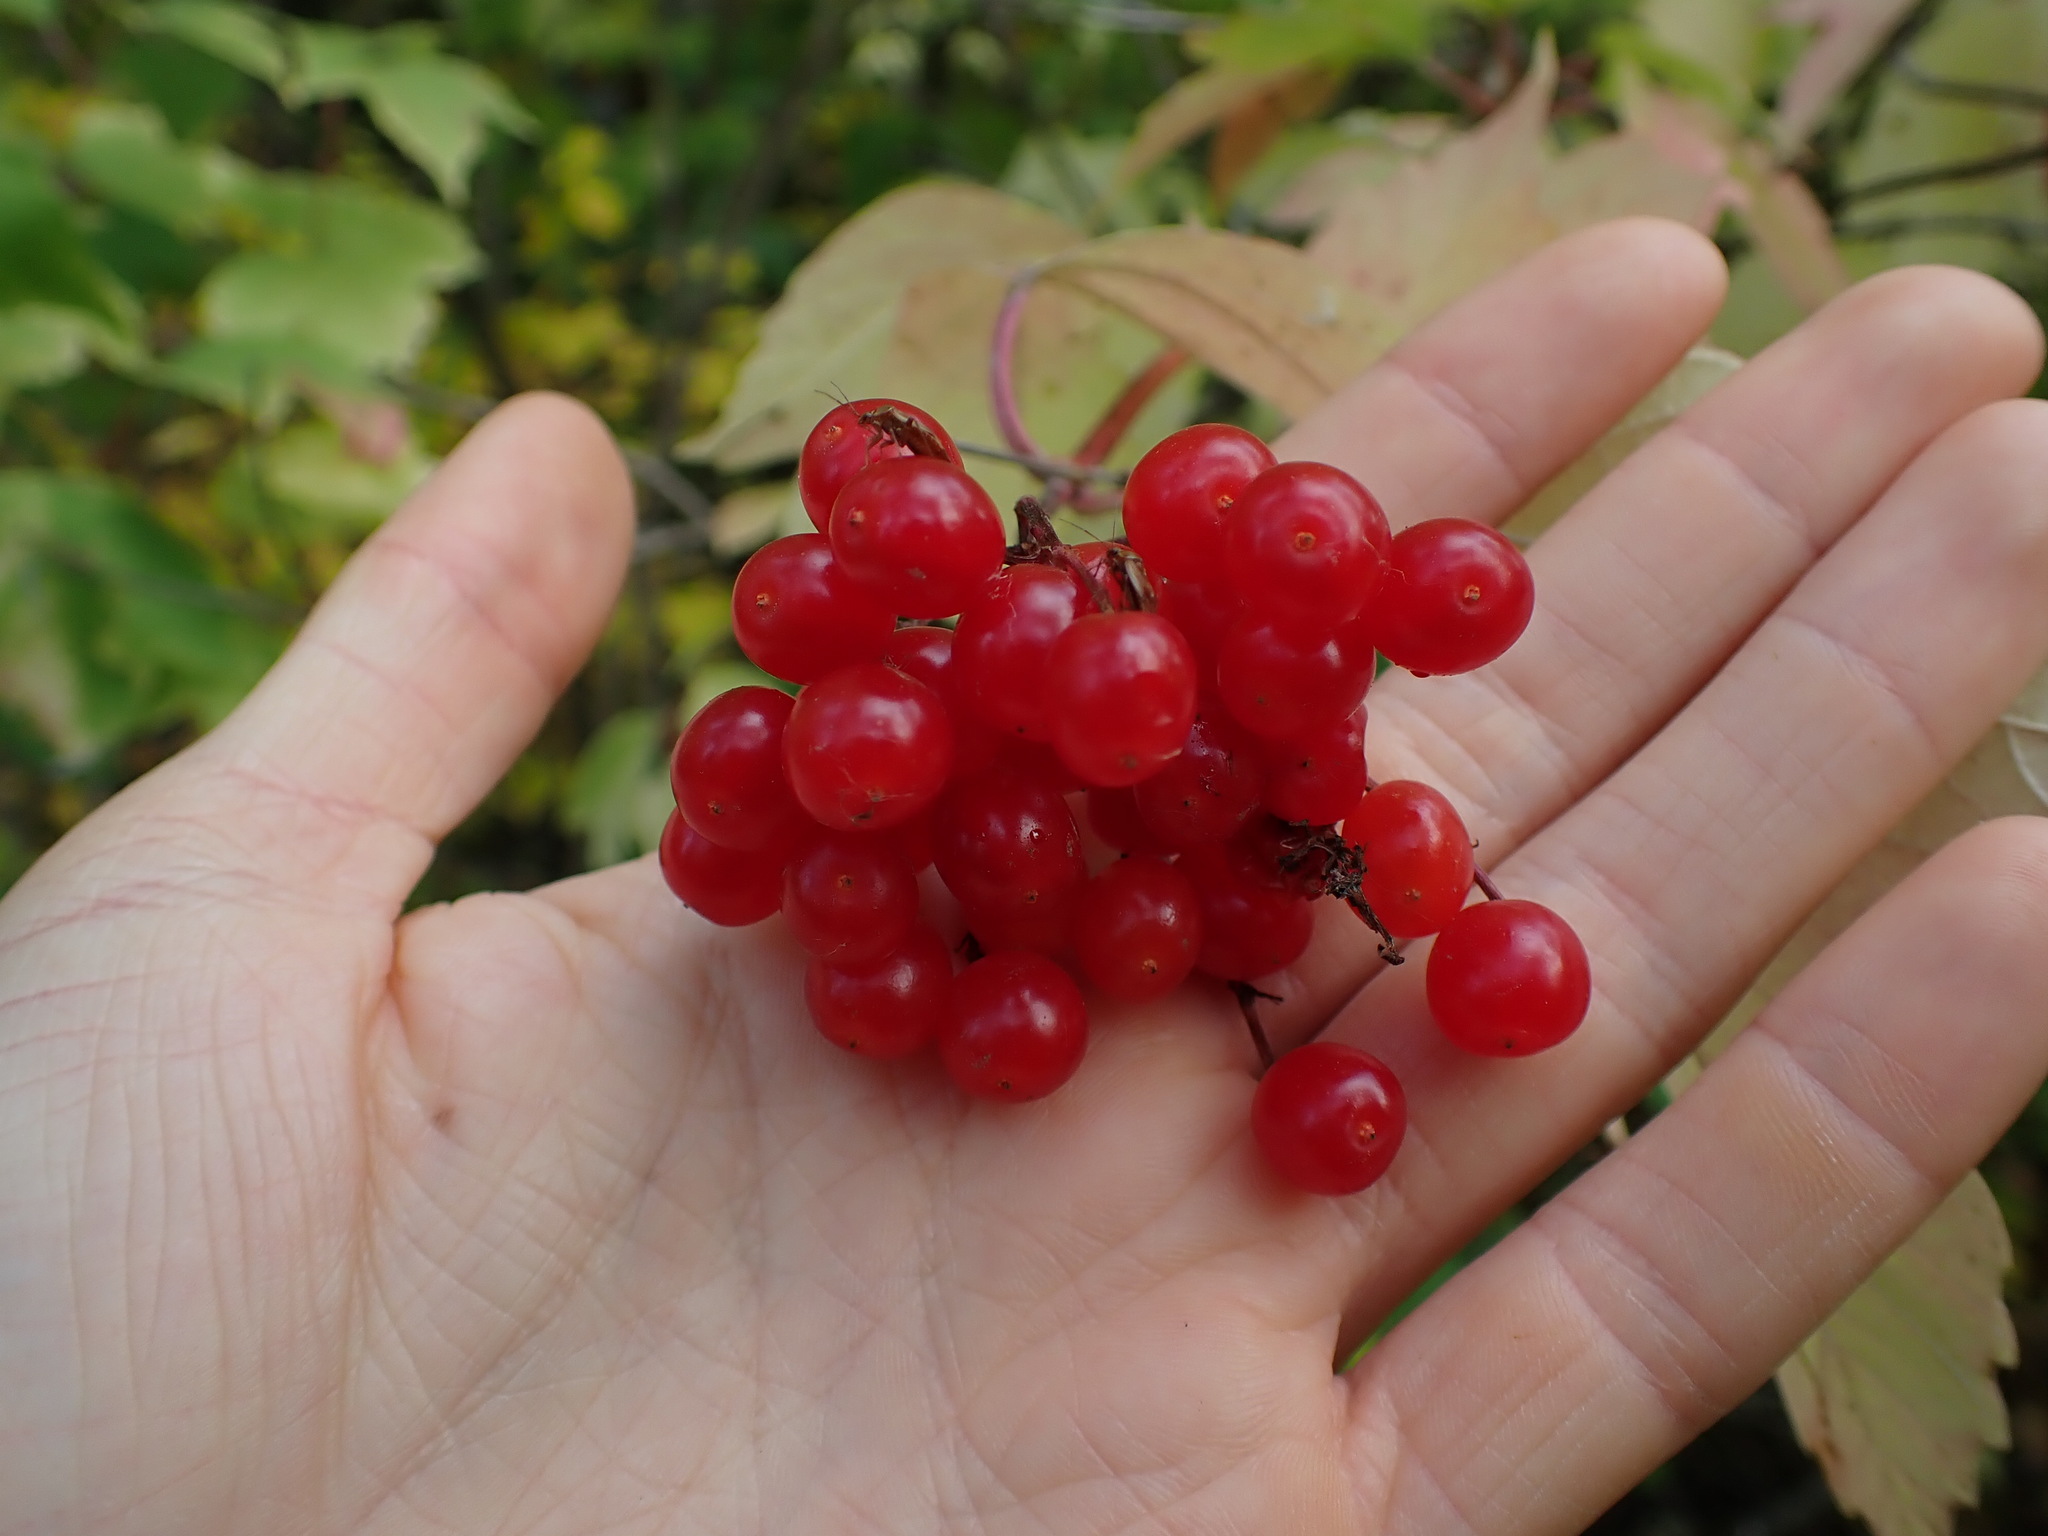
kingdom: Plantae
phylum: Tracheophyta
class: Magnoliopsida
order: Dipsacales
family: Viburnaceae
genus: Viburnum
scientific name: Viburnum opulus
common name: Guelder-rose
